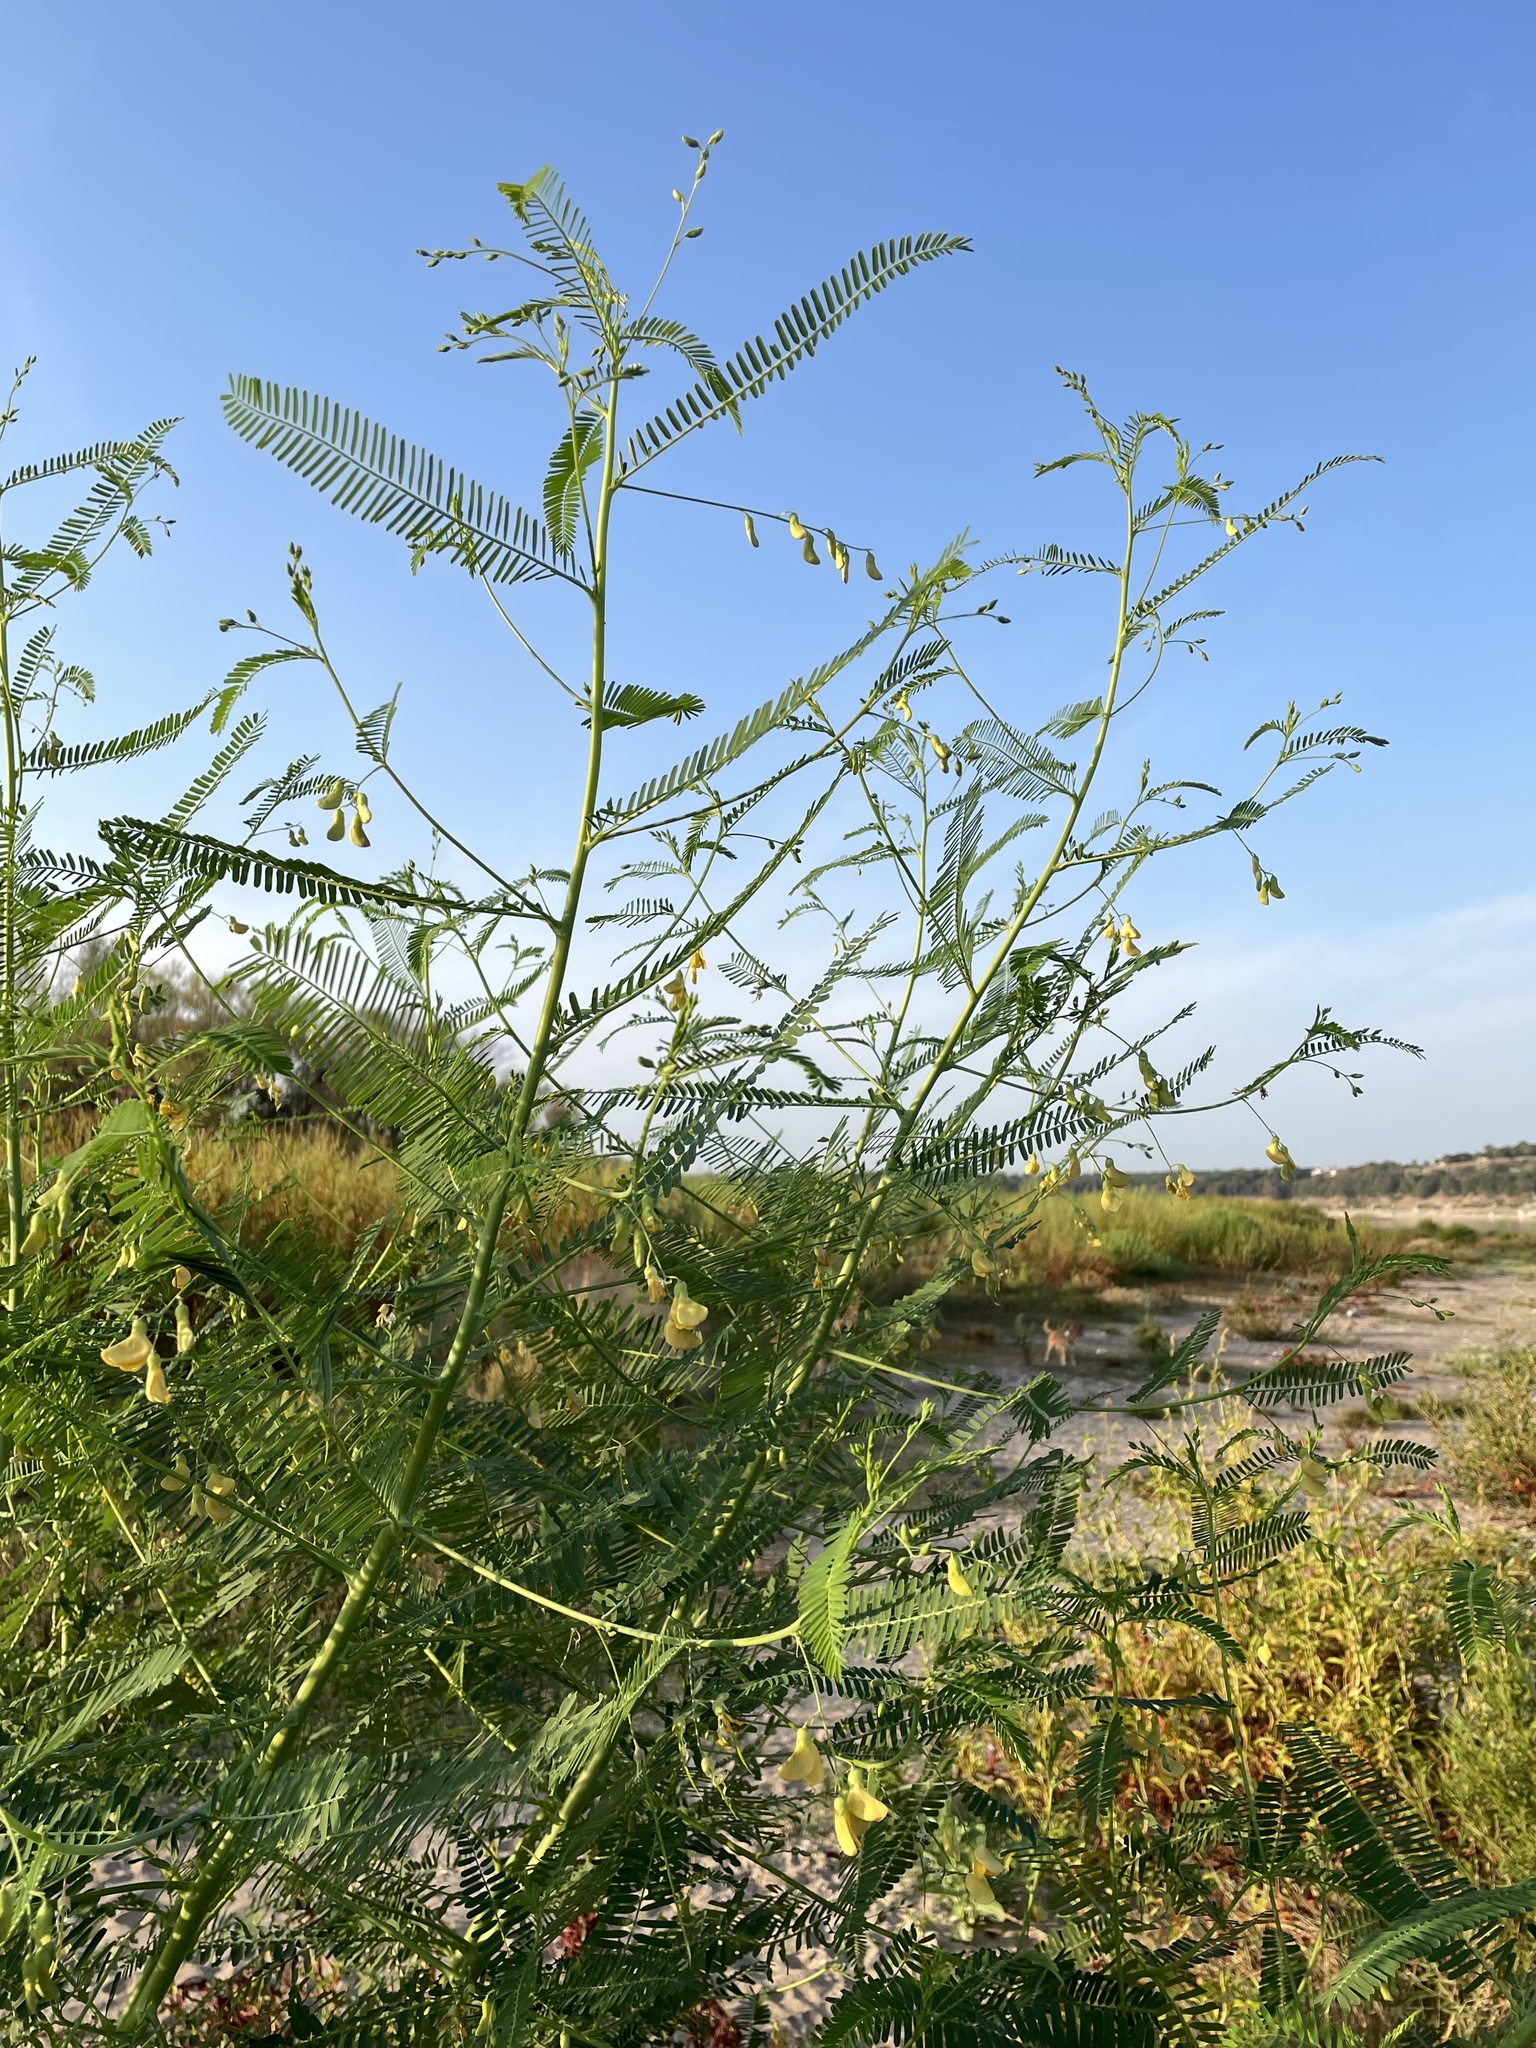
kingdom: Plantae
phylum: Tracheophyta
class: Magnoliopsida
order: Fabales
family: Fabaceae
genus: Sesbania
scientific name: Sesbania herbacea
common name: Bigpod sesbania
